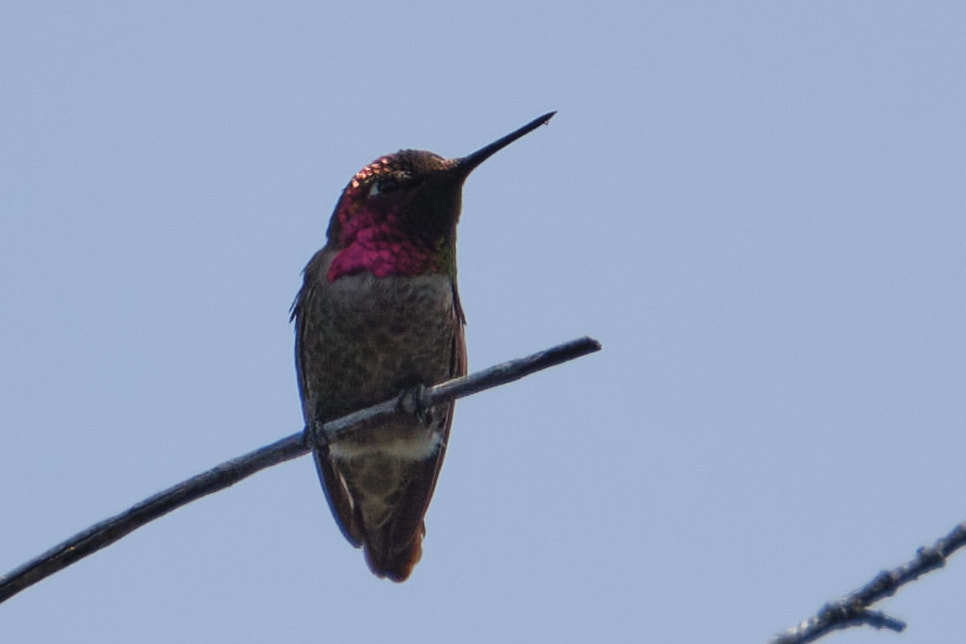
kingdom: Animalia
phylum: Chordata
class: Aves
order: Apodiformes
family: Trochilidae
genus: Calypte
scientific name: Calypte anna
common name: Anna's hummingbird
